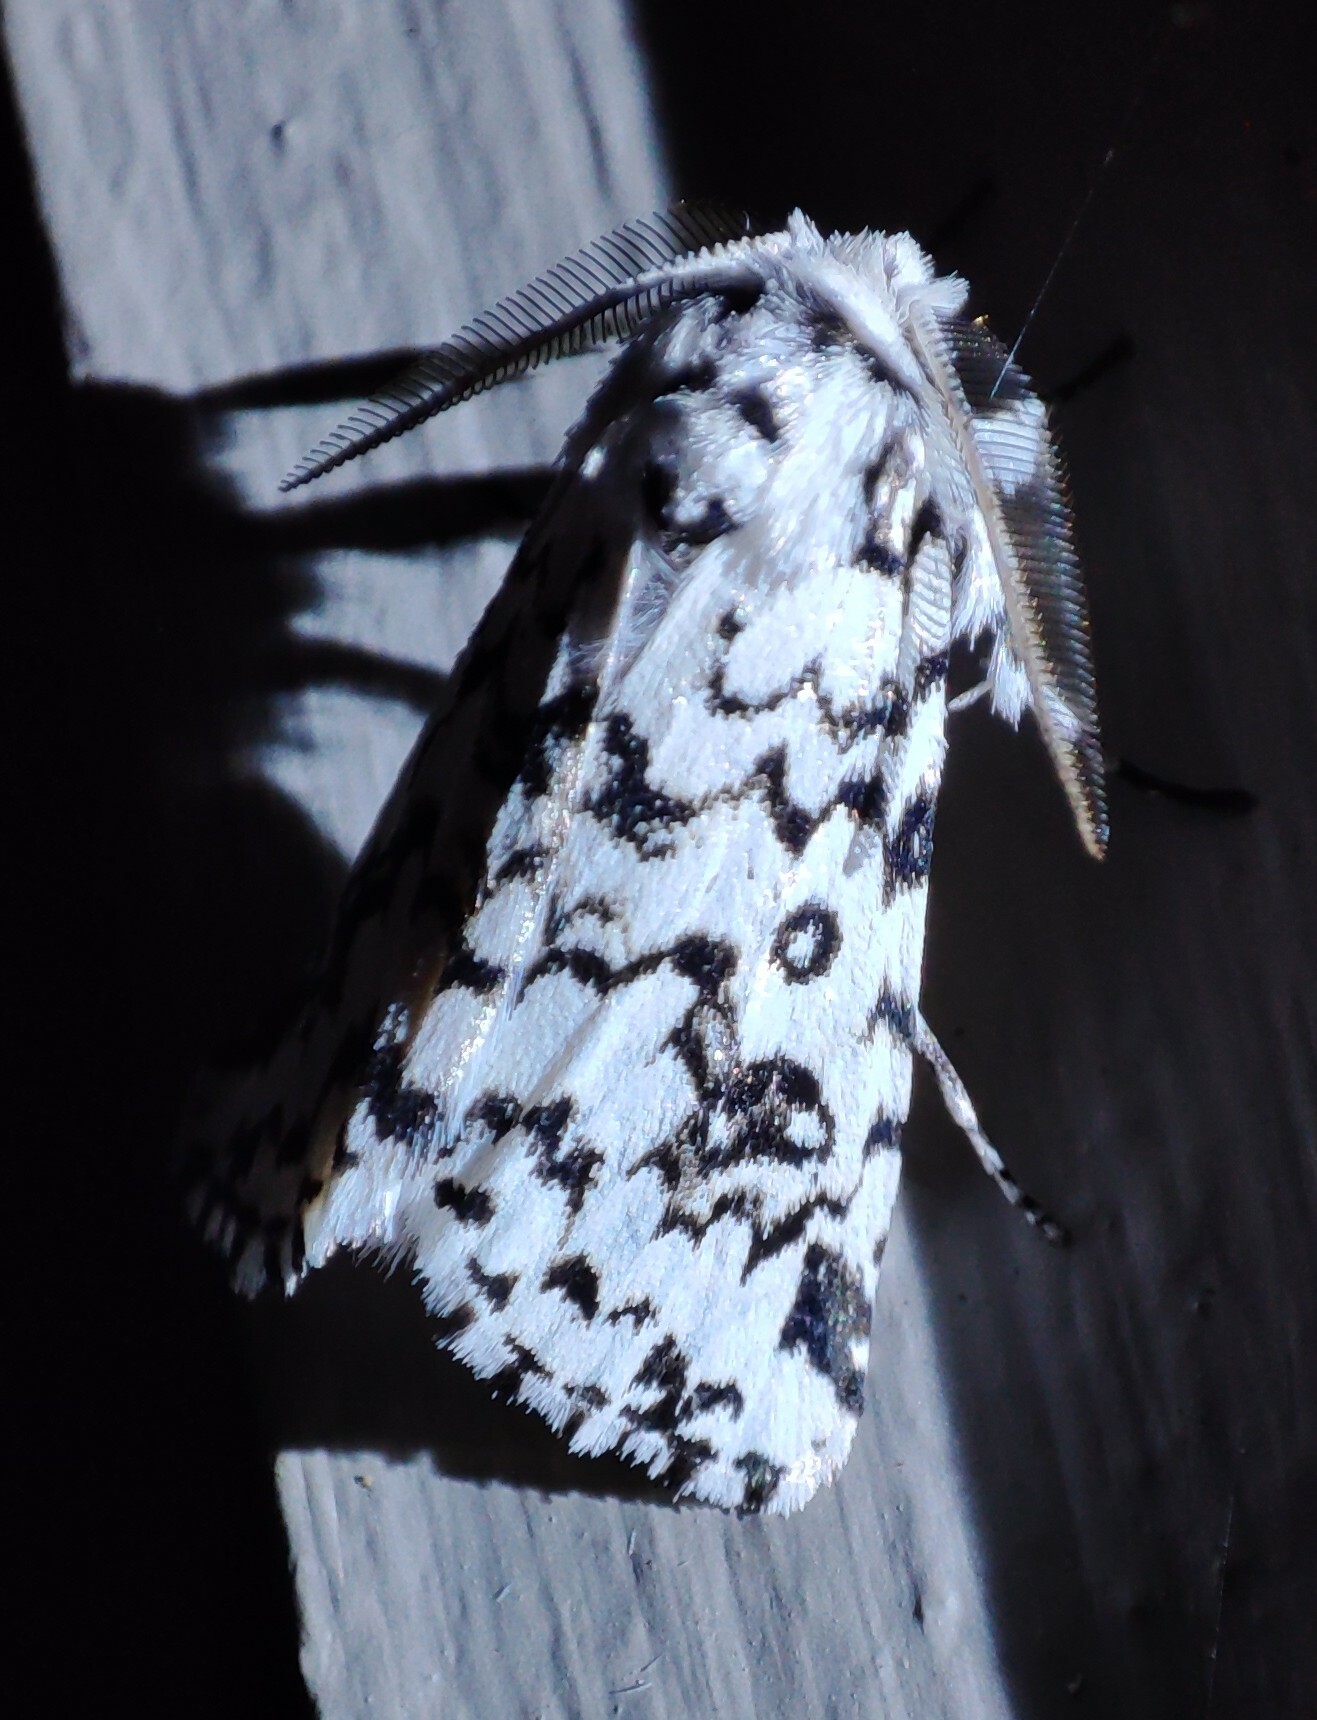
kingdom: Animalia
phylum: Arthropoda
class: Insecta
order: Lepidoptera
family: Erebidae
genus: Dasychira
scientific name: Dasychira octophora
